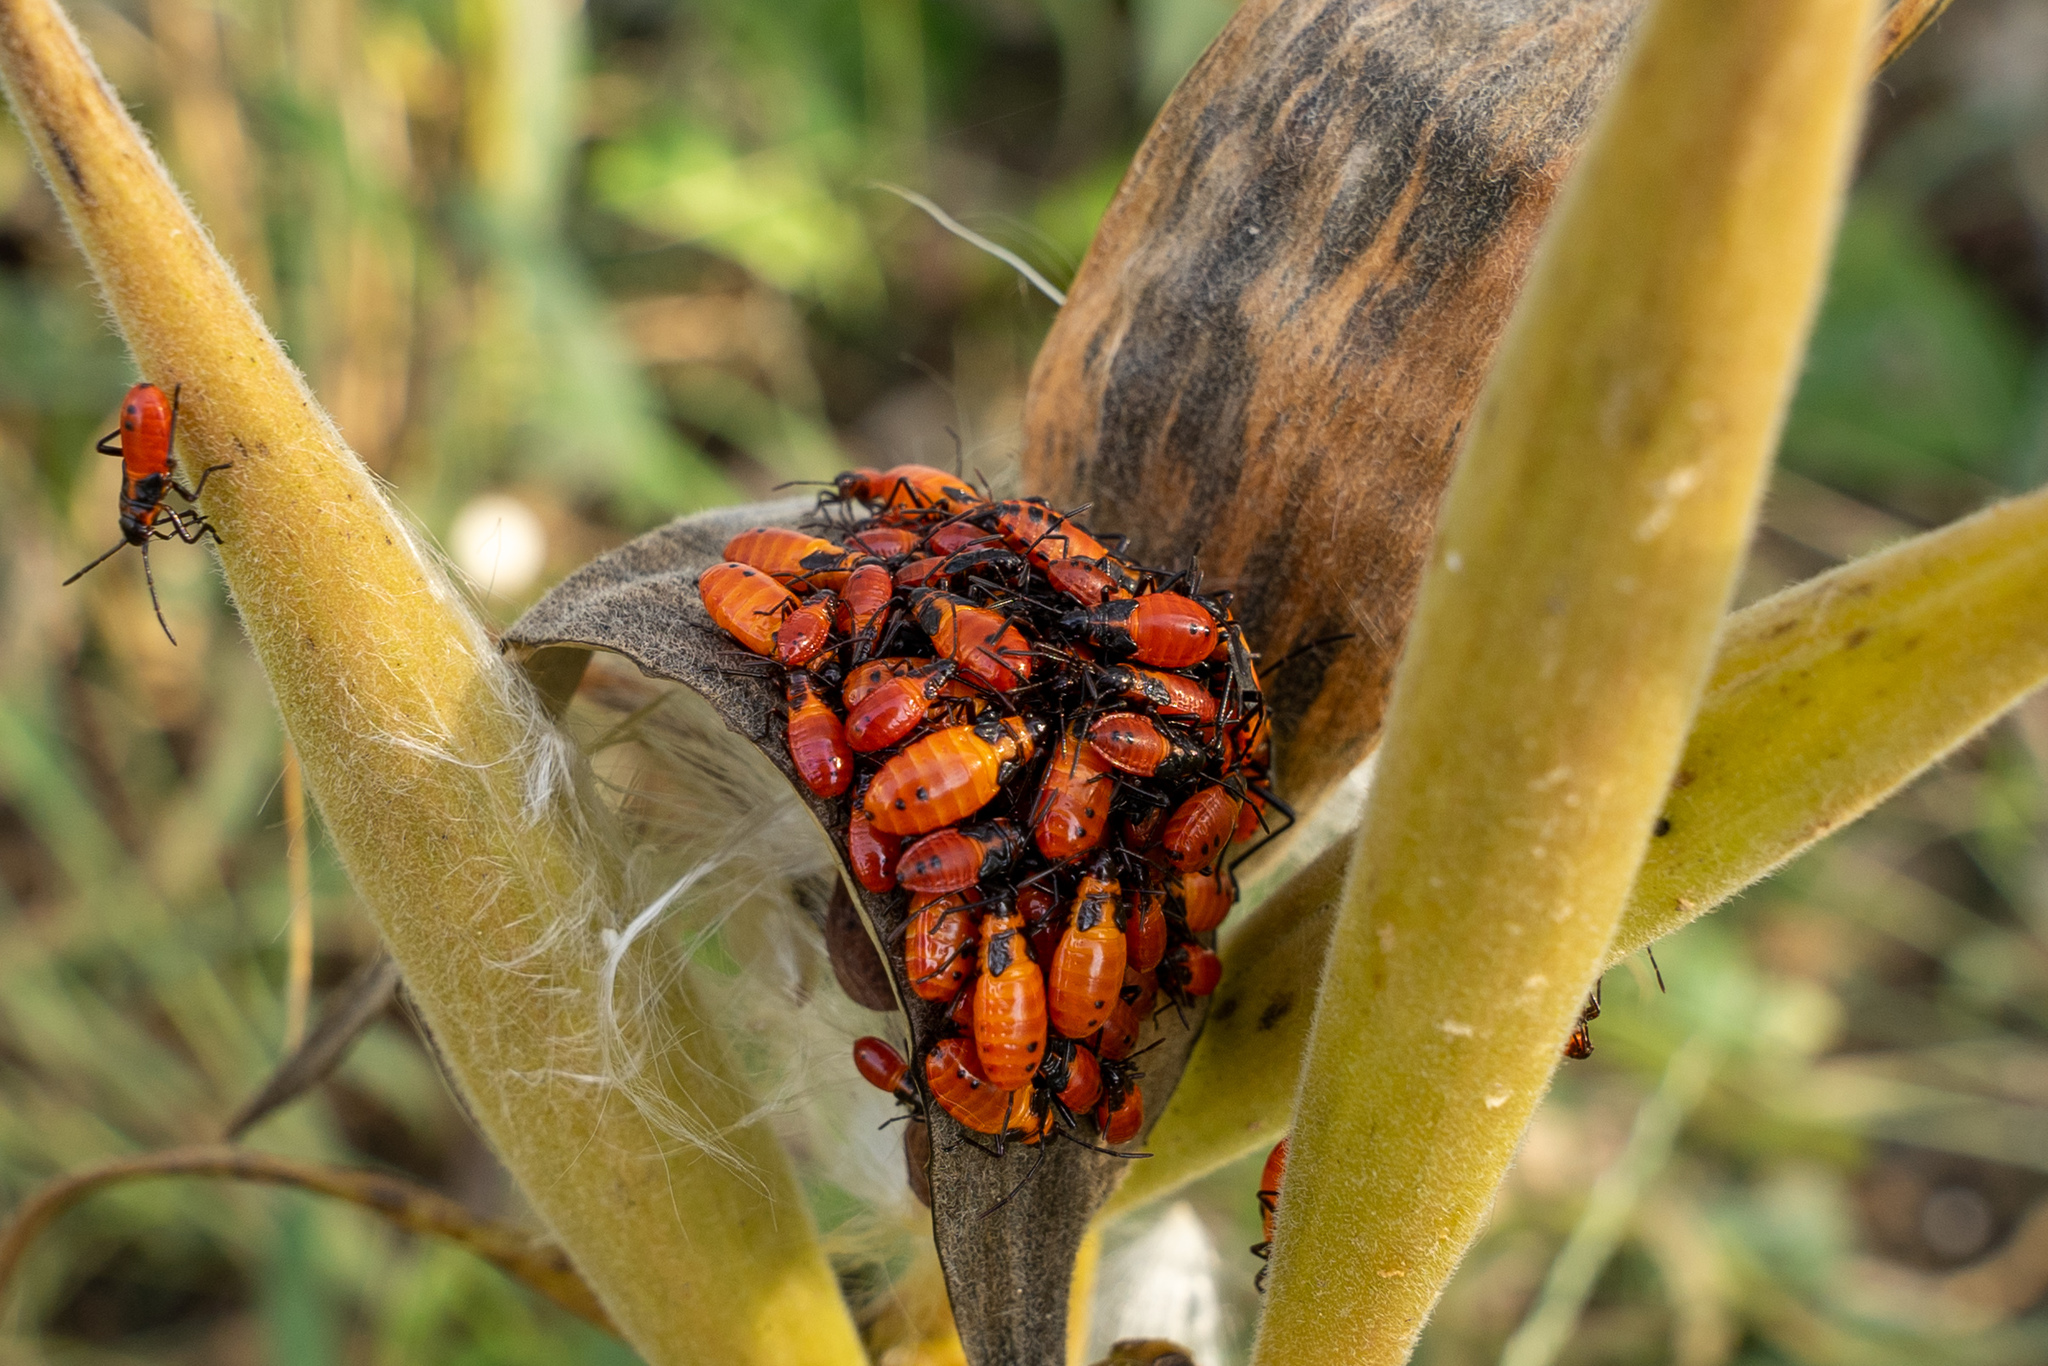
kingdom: Animalia
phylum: Arthropoda
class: Insecta
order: Hemiptera
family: Lygaeidae
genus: Oncopeltus
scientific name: Oncopeltus fasciatus
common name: Large milkweed bug
